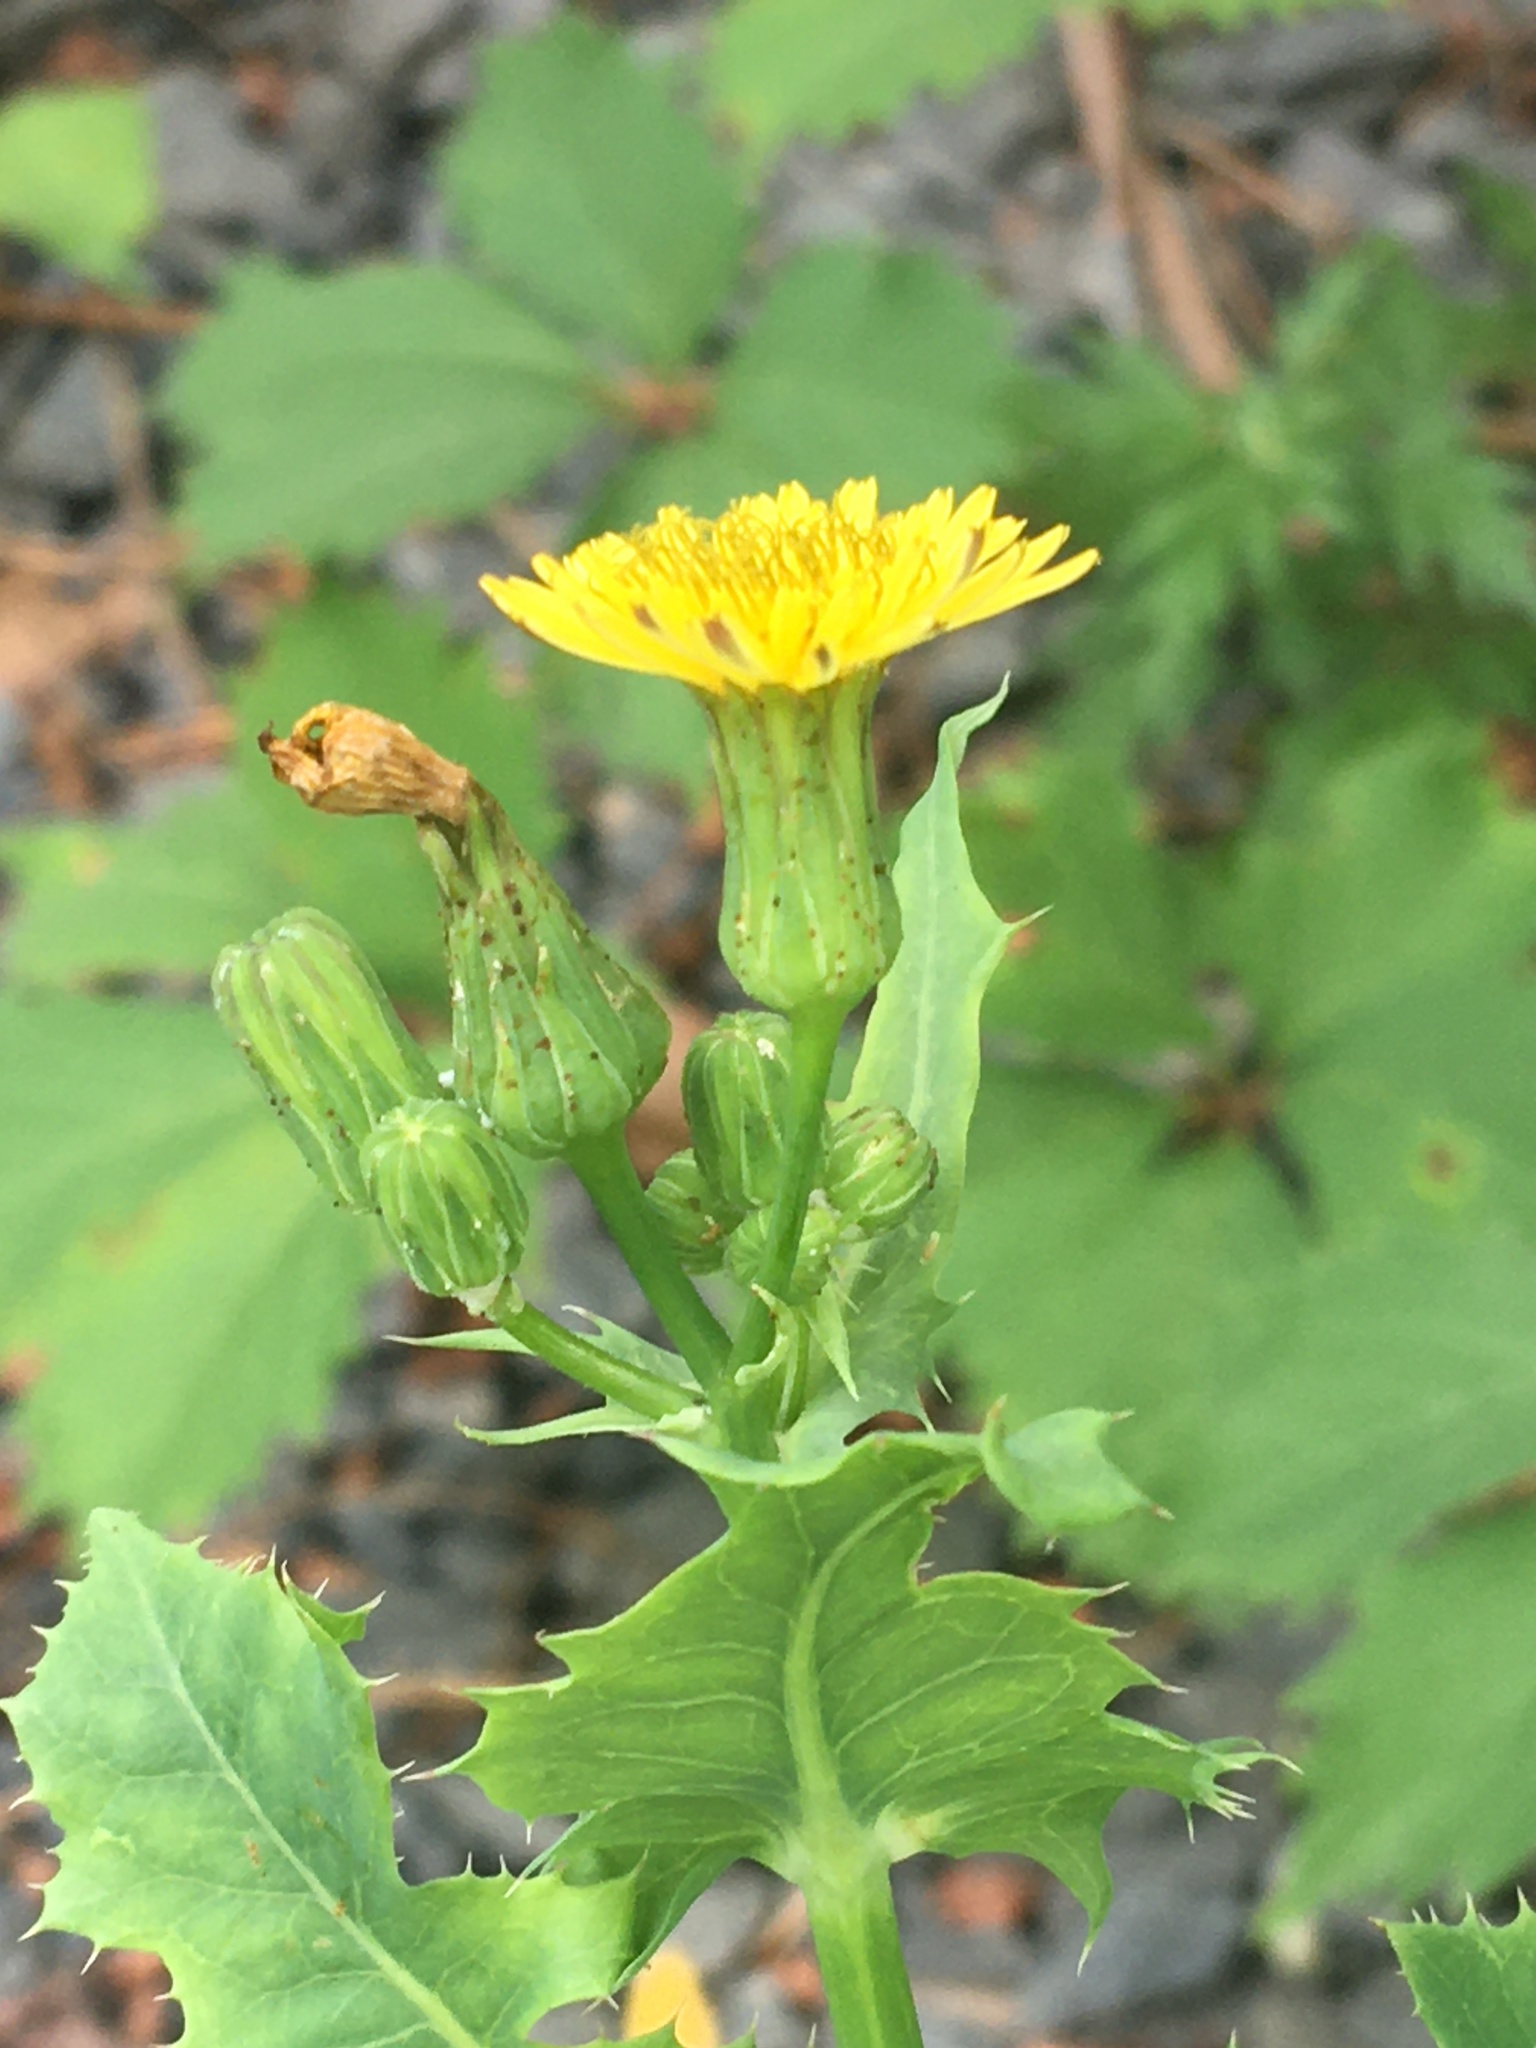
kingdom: Plantae
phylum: Tracheophyta
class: Magnoliopsida
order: Asterales
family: Asteraceae
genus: Sonchus
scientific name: Sonchus asper
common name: Prickly sow-thistle
